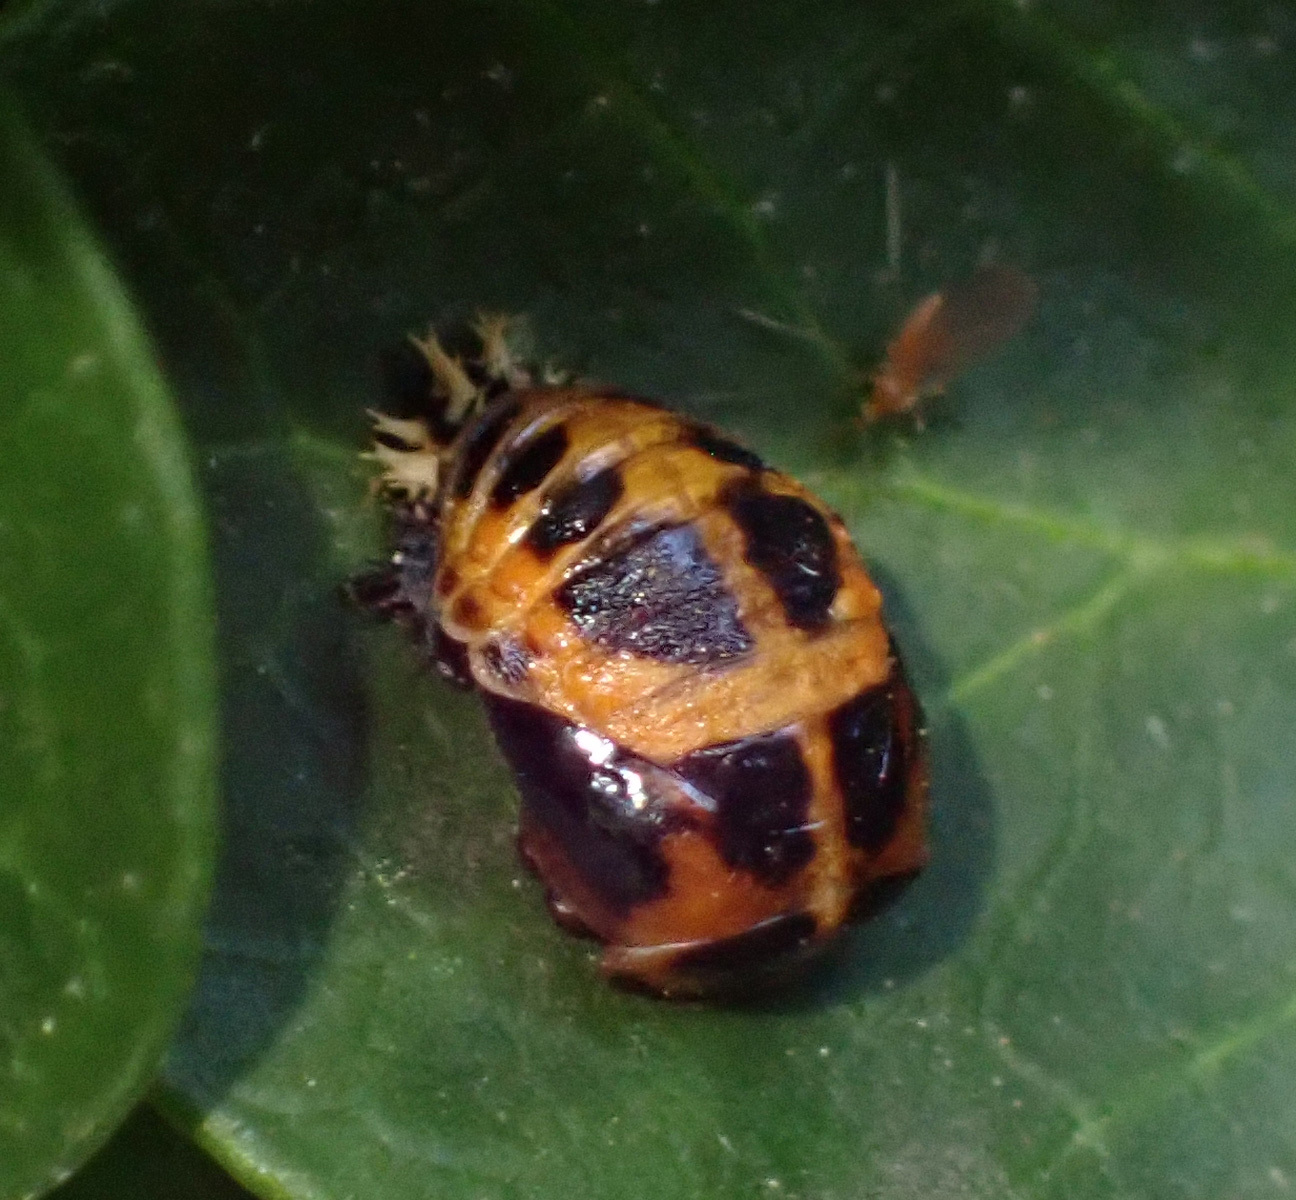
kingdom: Animalia
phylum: Arthropoda
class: Insecta
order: Coleoptera
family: Coccinellidae
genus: Harmonia
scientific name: Harmonia axyridis
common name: Harlequin ladybird
